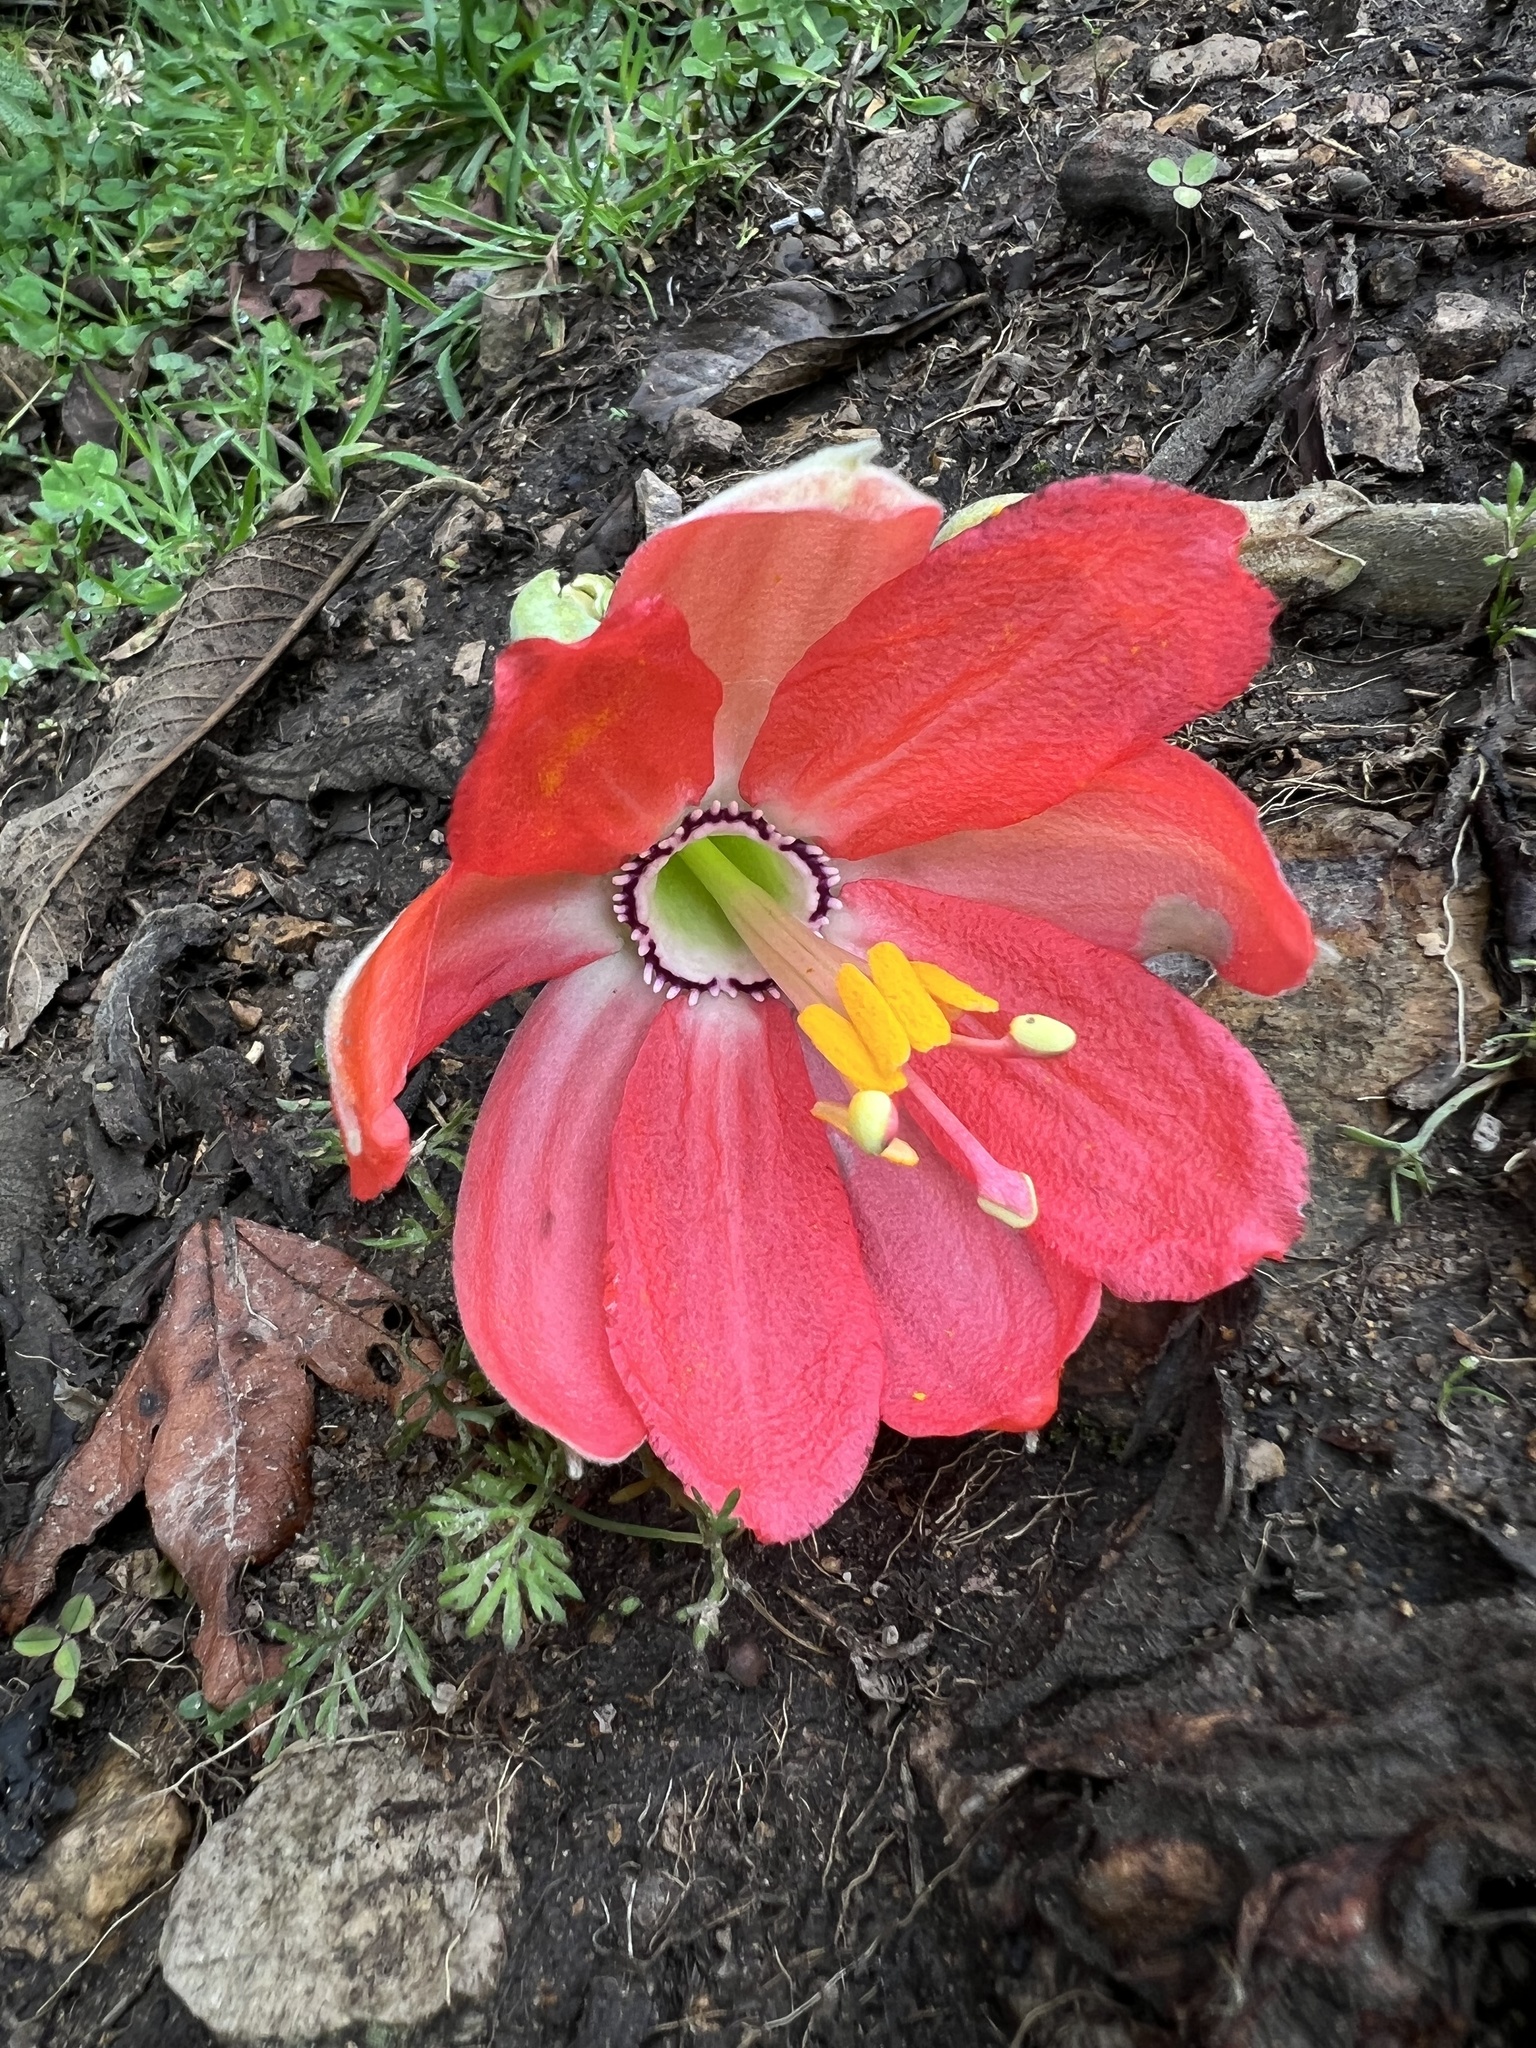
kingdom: Plantae
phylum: Tracheophyta
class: Magnoliopsida
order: Malpighiales
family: Passifloraceae
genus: Passiflora
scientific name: Passiflora mixta
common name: Passion flower
